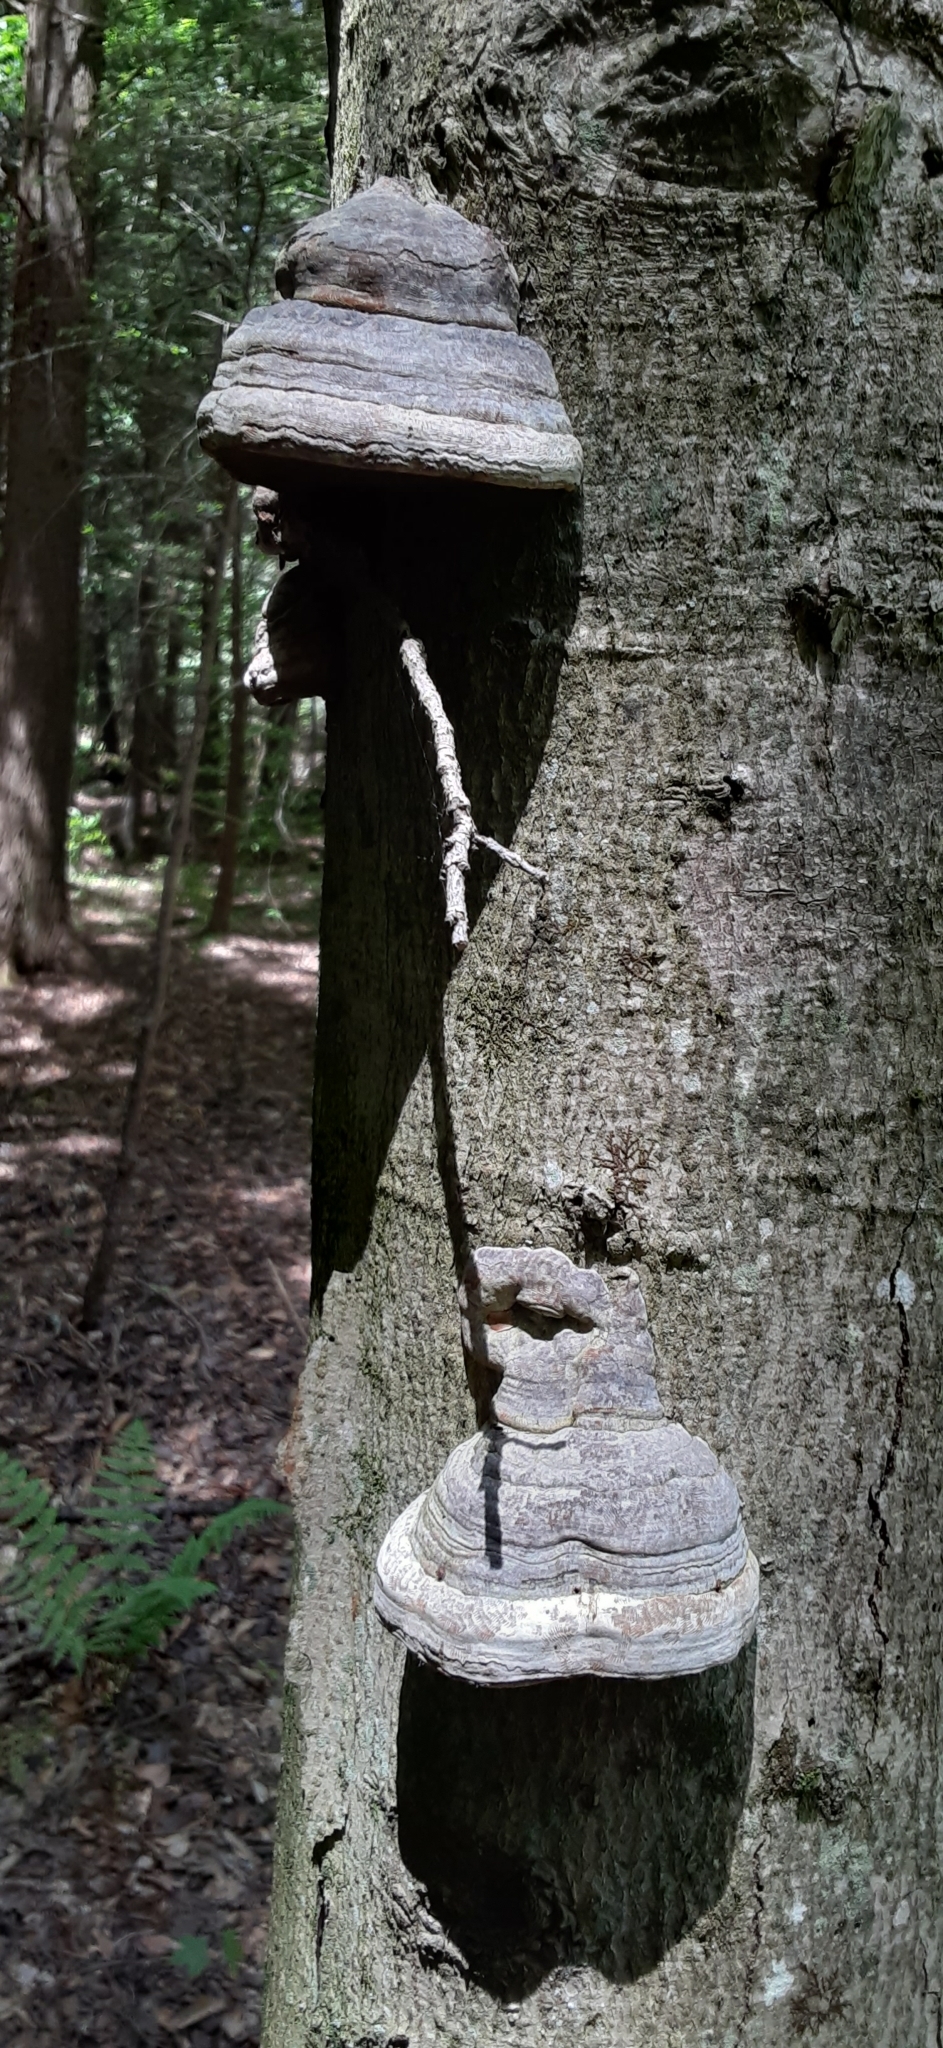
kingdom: Fungi
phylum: Basidiomycota
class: Agaricomycetes
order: Polyporales
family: Polyporaceae
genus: Fomes
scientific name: Fomes fomentarius
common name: Hoof fungus
